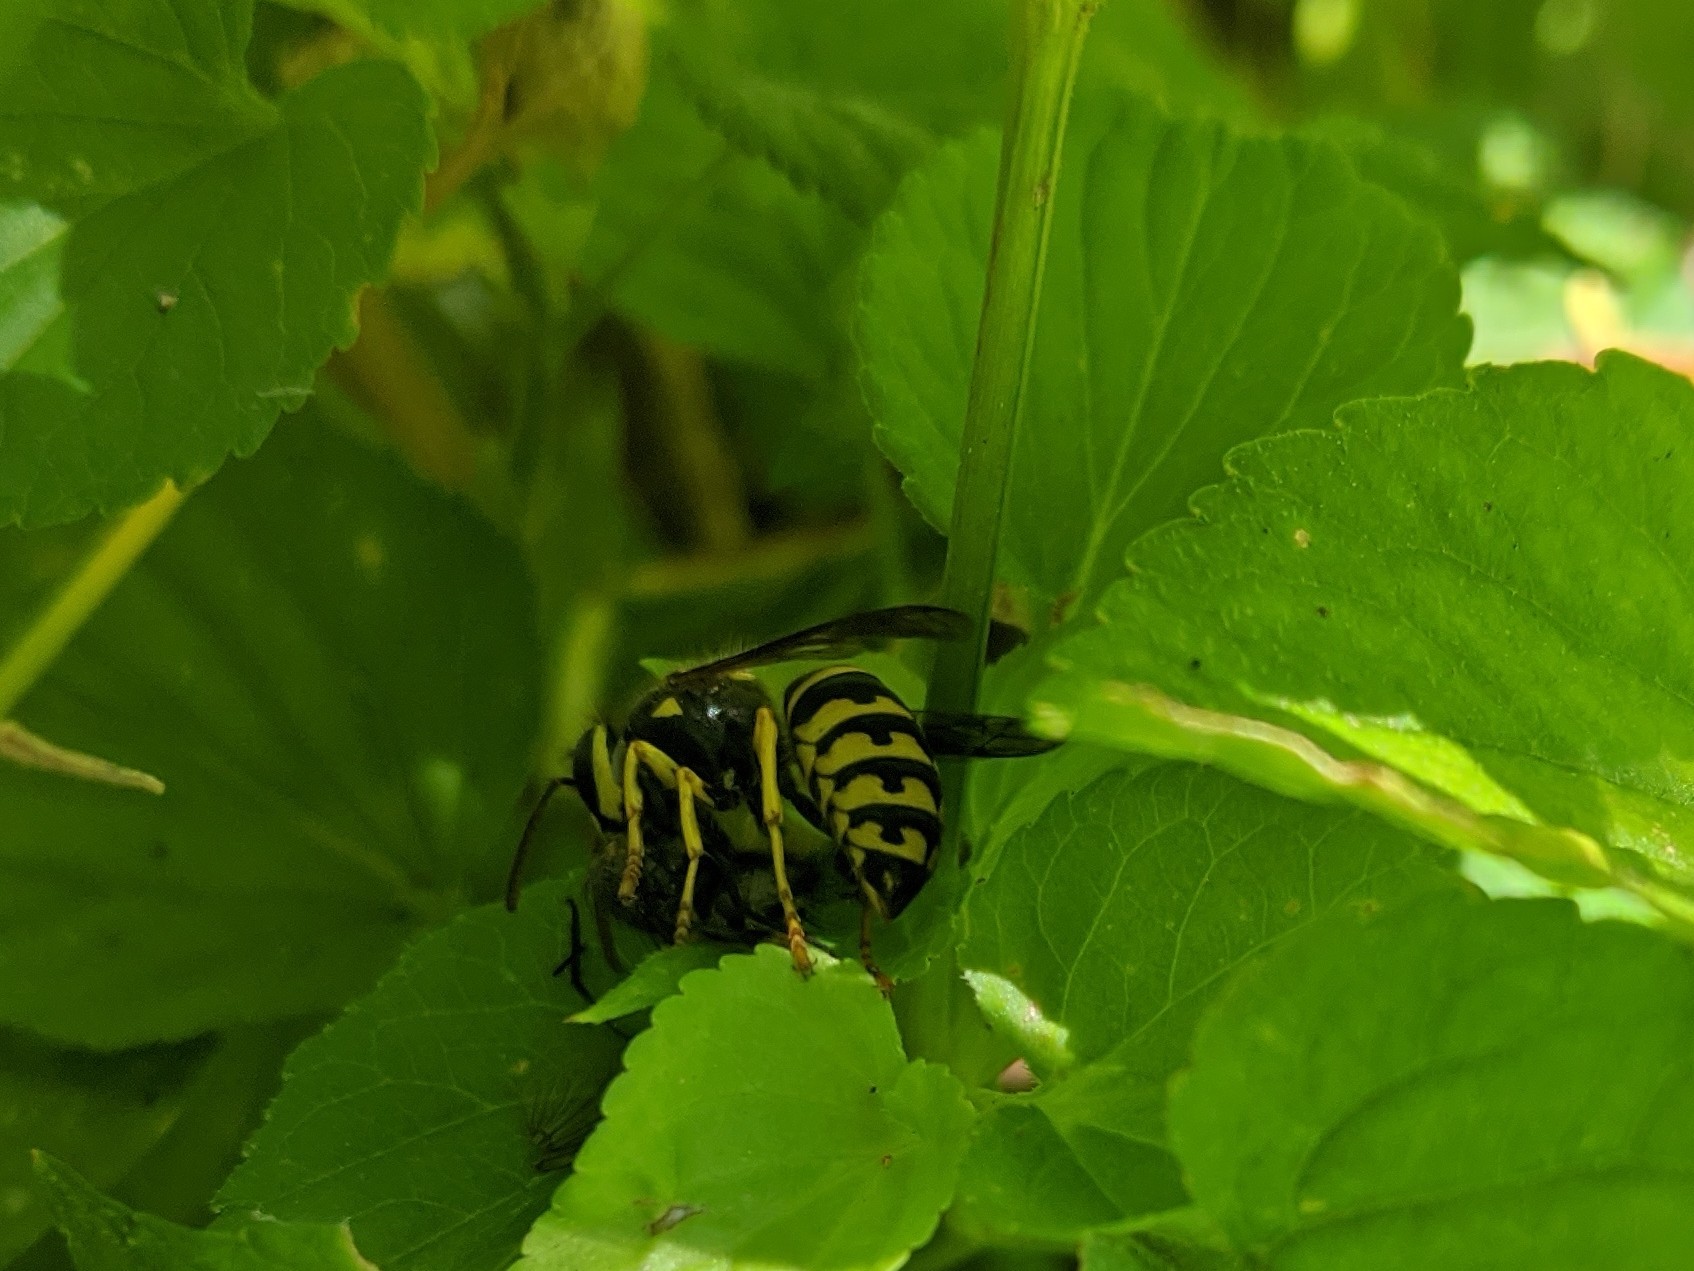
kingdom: Animalia
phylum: Arthropoda
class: Insecta
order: Hymenoptera
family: Vespidae
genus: Dolichovespula
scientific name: Dolichovespula arenaria
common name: Aerial yellowjacket
